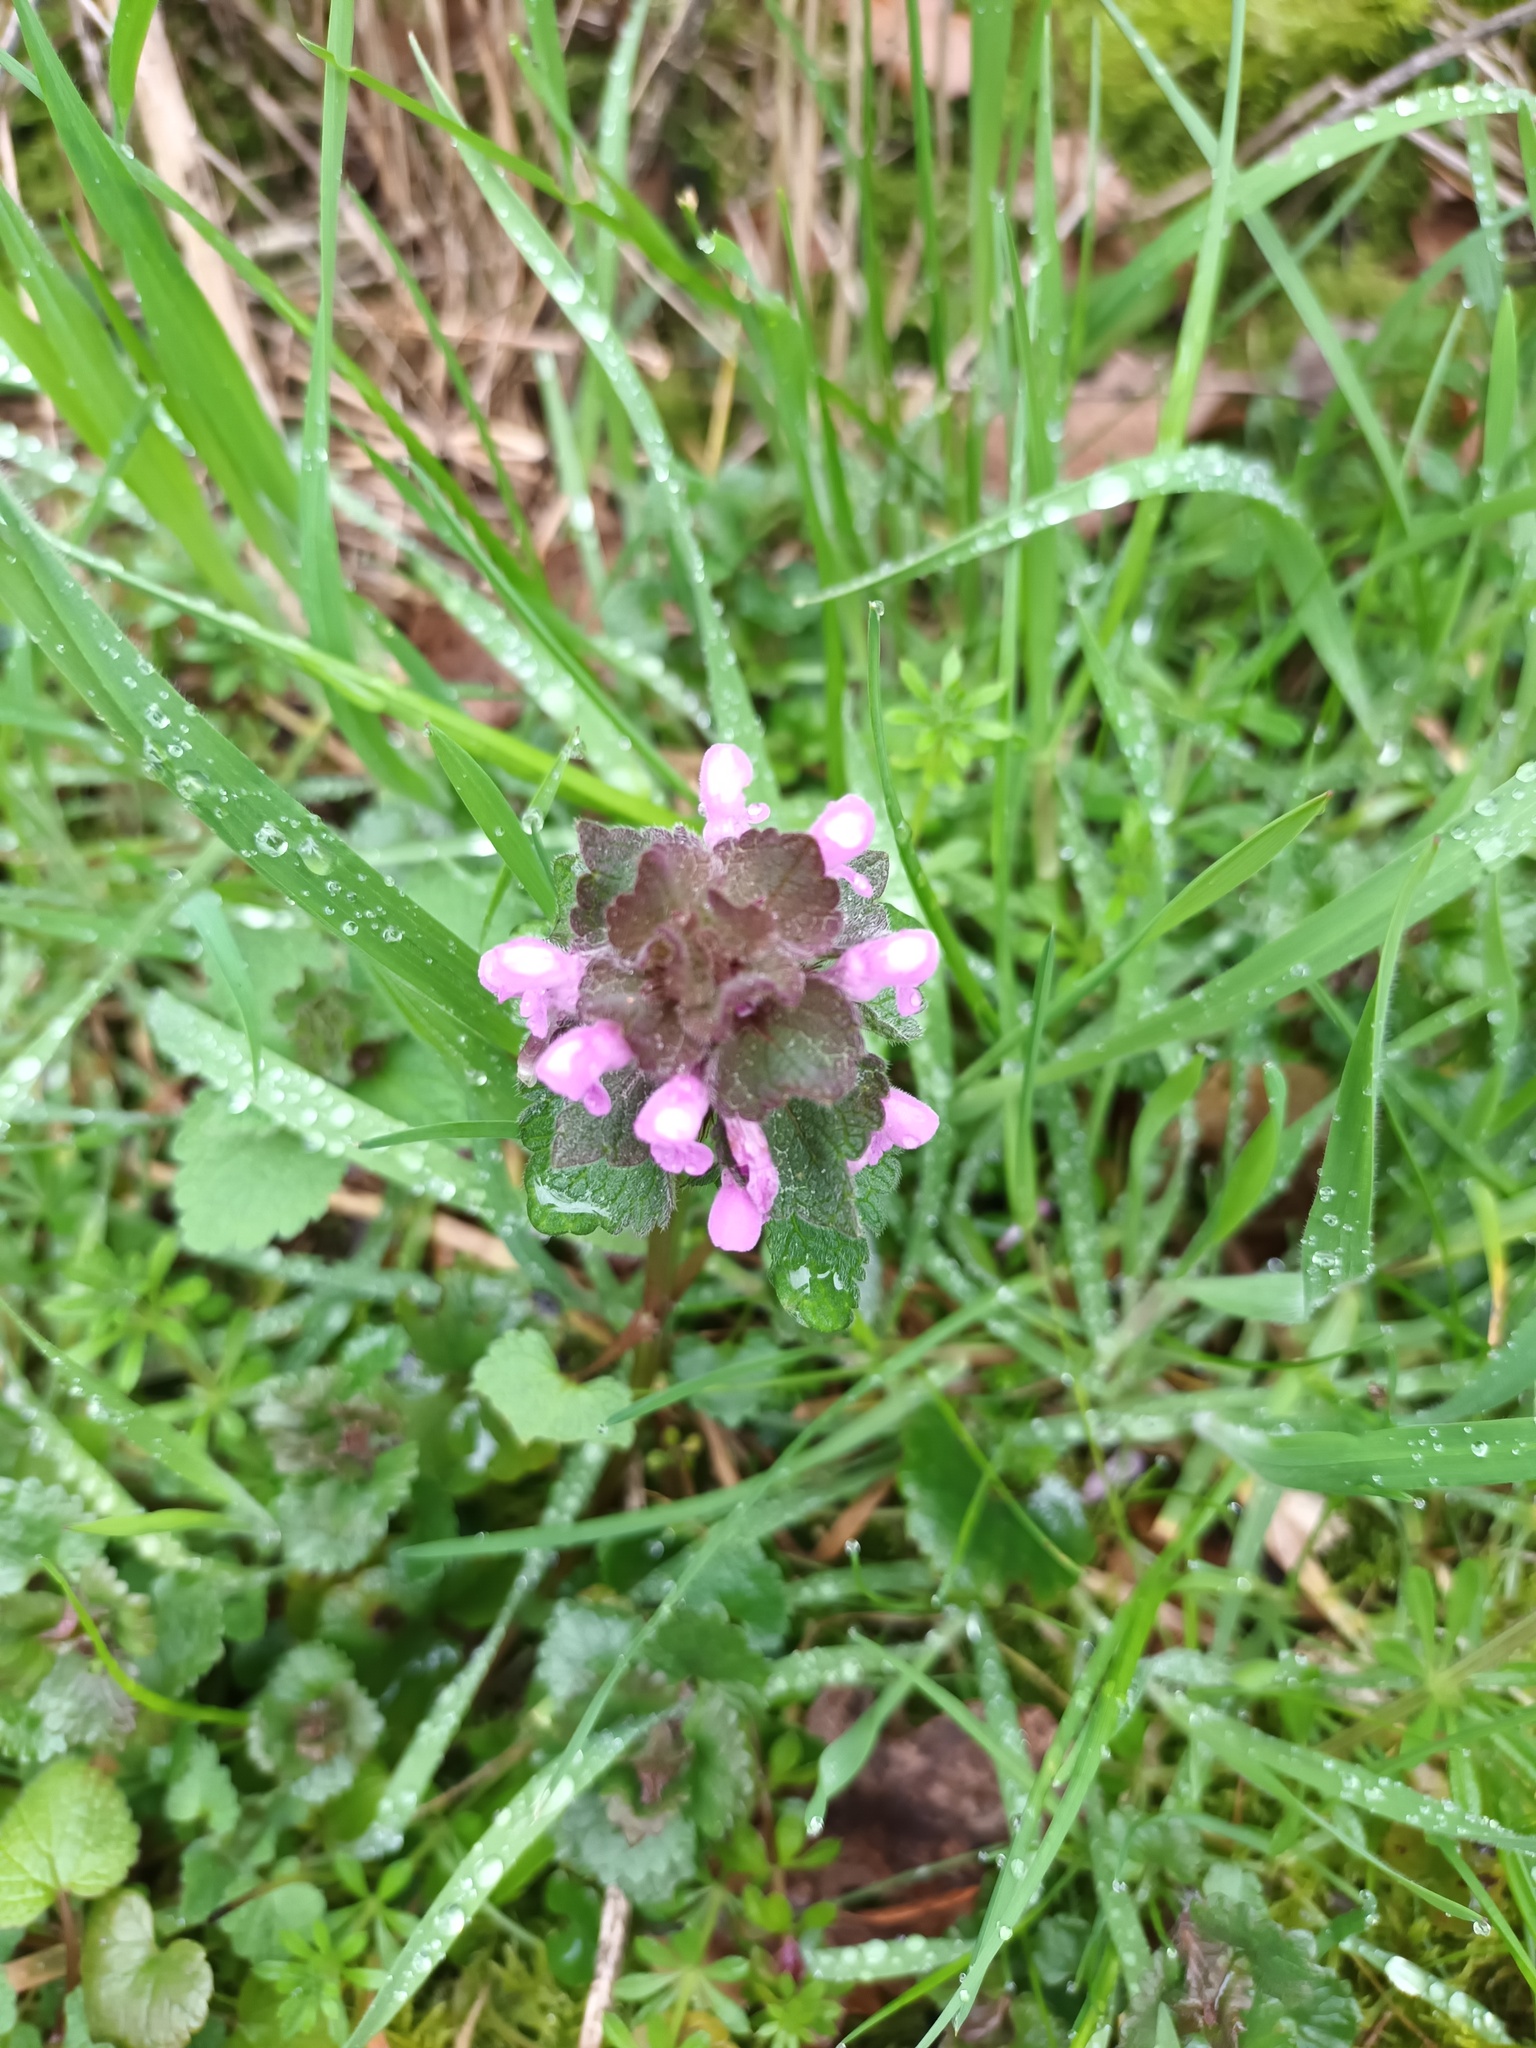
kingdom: Plantae
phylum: Tracheophyta
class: Magnoliopsida
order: Lamiales
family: Lamiaceae
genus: Lamium
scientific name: Lamium purpureum
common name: Red dead-nettle
